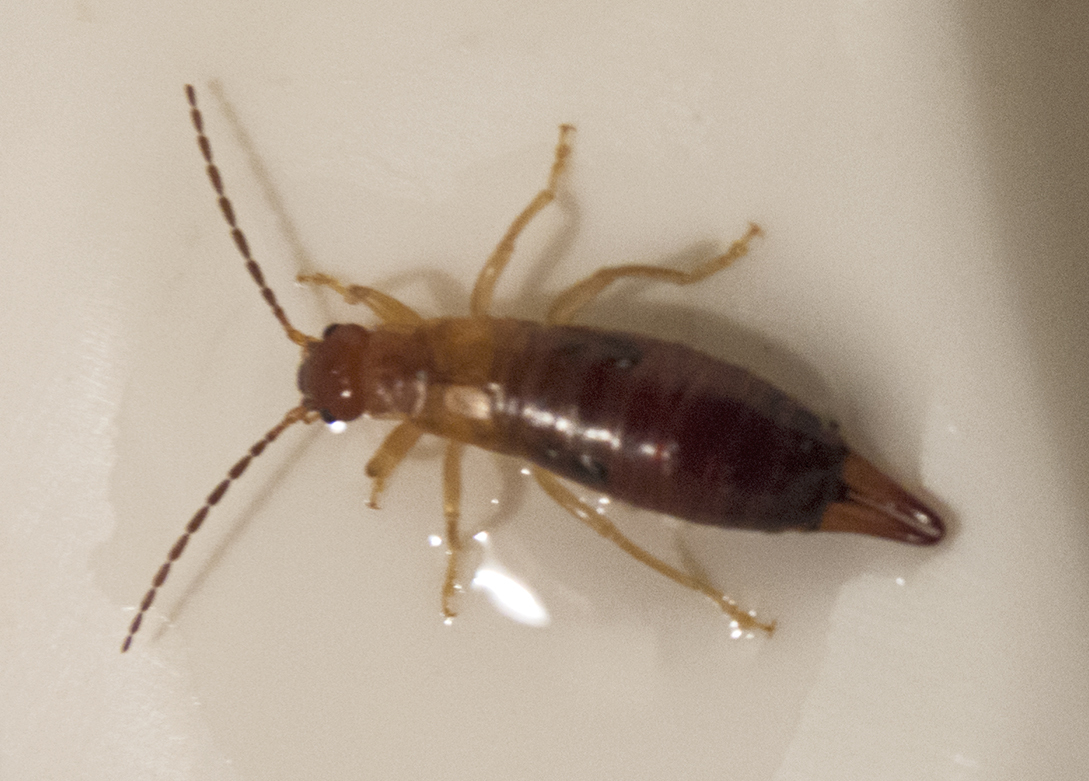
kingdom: Animalia
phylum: Arthropoda
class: Insecta
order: Dermaptera
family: Forficulidae
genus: Forficula
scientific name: Forficula aetolica
